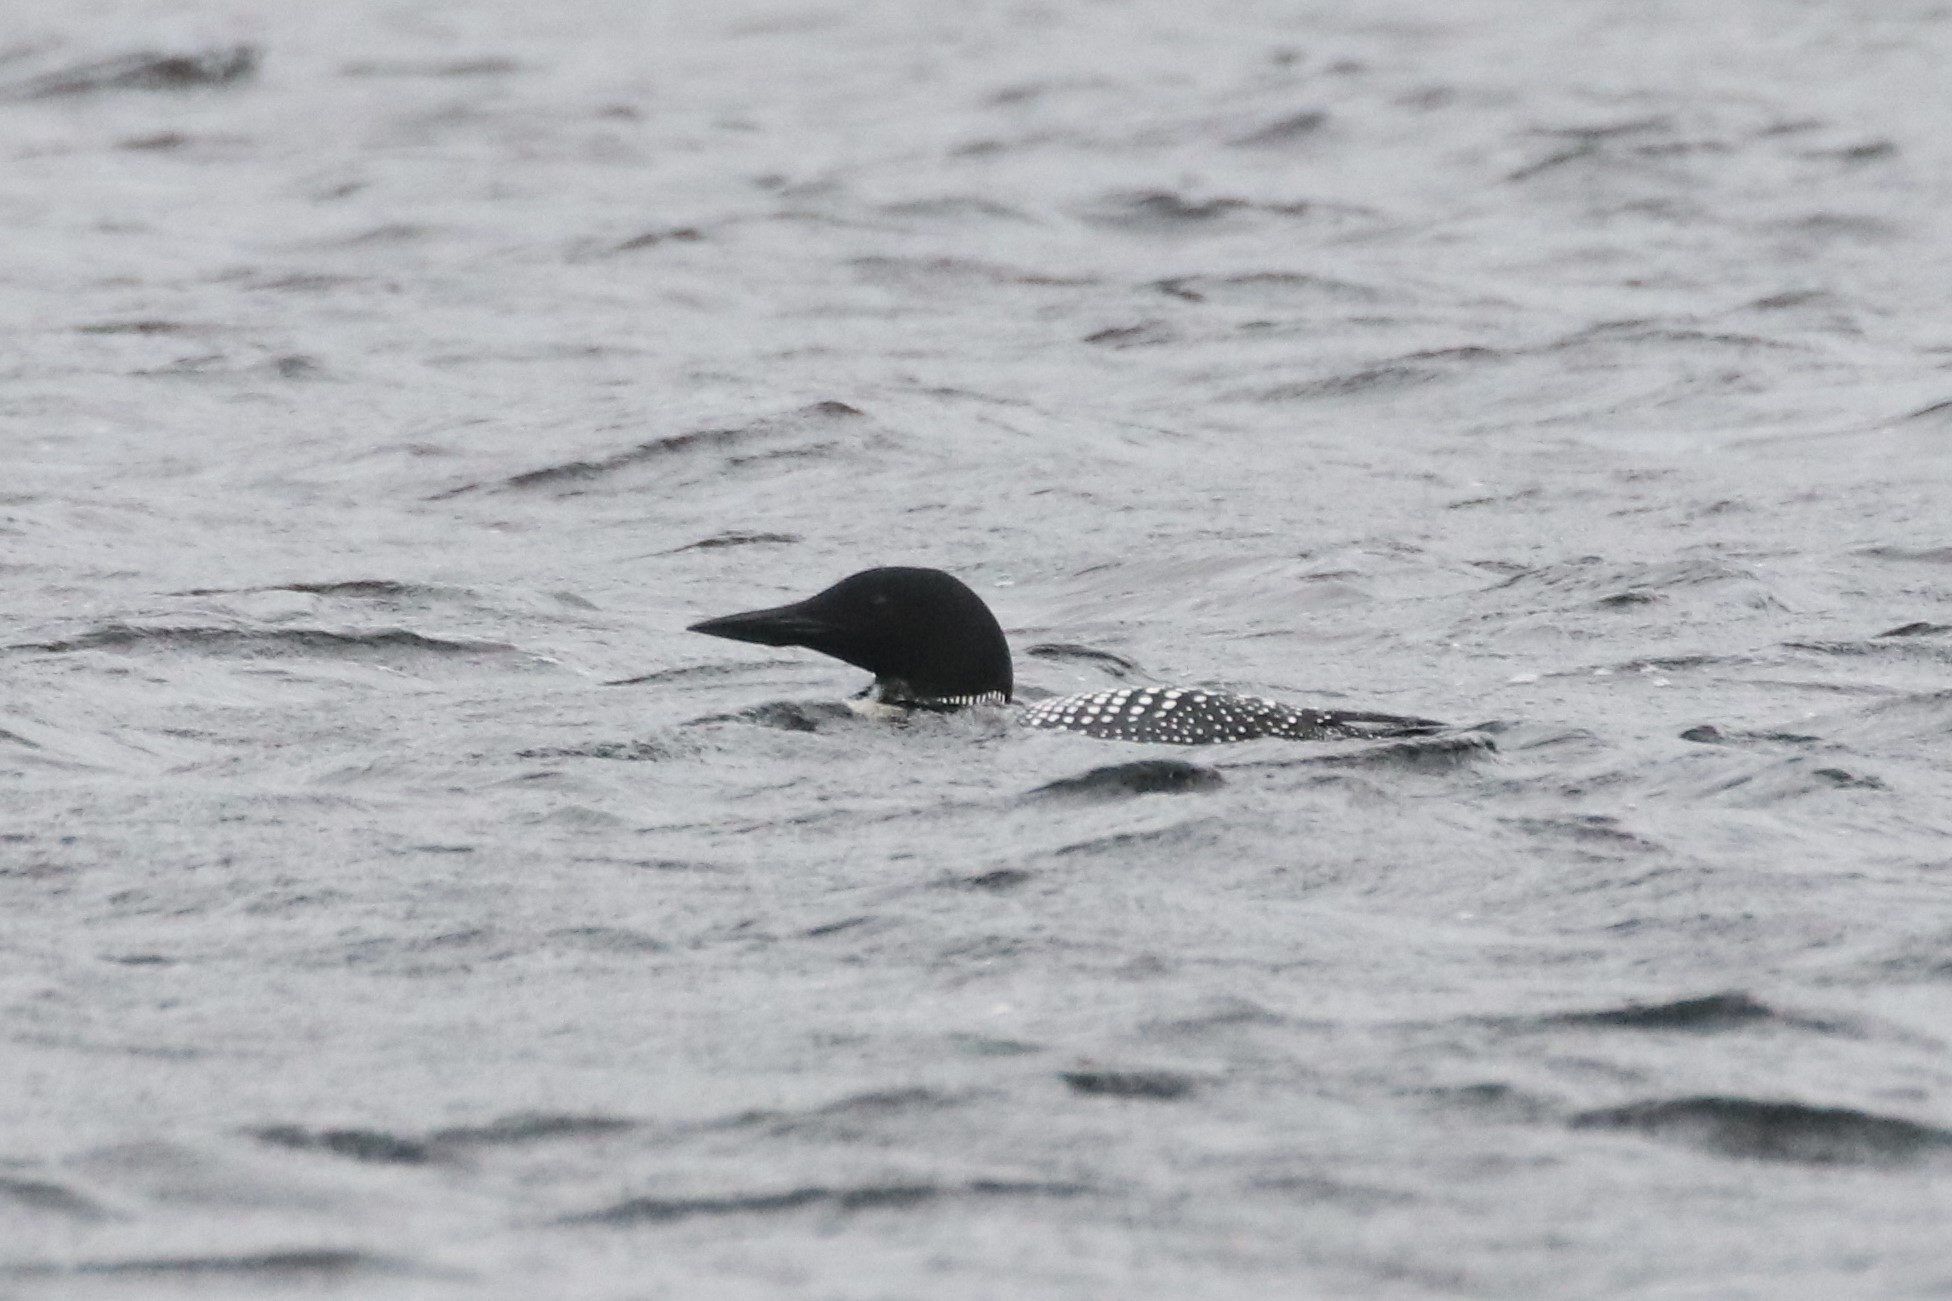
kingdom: Animalia
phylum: Chordata
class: Aves
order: Gaviiformes
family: Gaviidae
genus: Gavia
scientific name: Gavia immer
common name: Common loon
